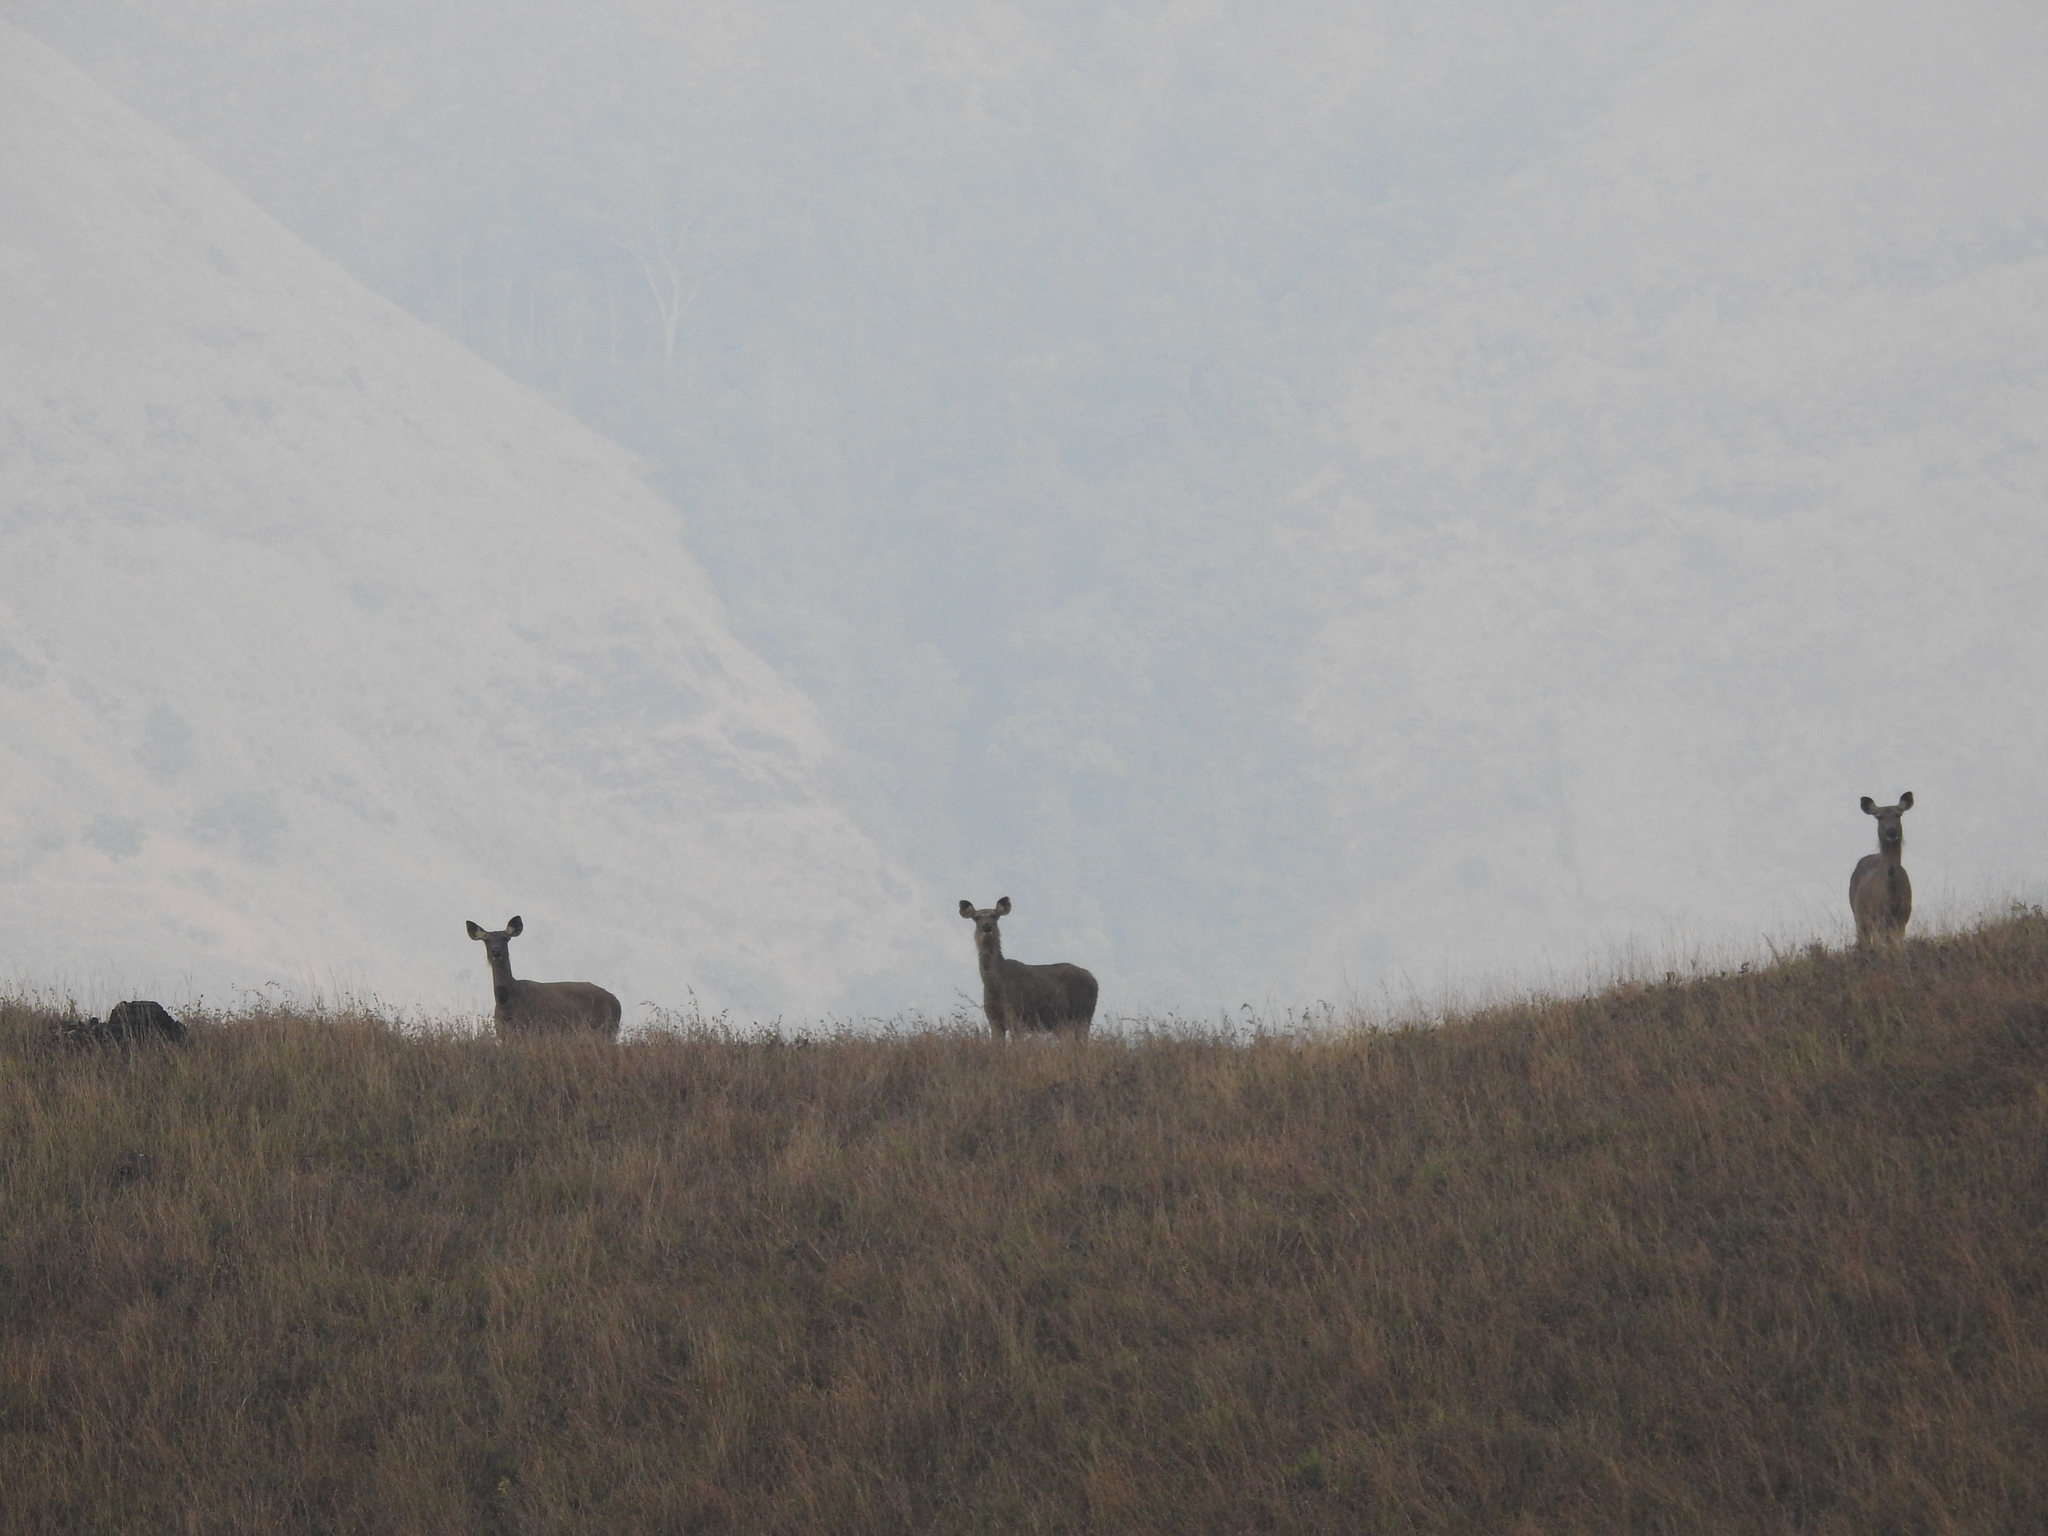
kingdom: Animalia
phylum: Chordata
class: Mammalia
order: Artiodactyla
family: Cervidae
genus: Rusa
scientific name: Rusa unicolor
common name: Sambar
